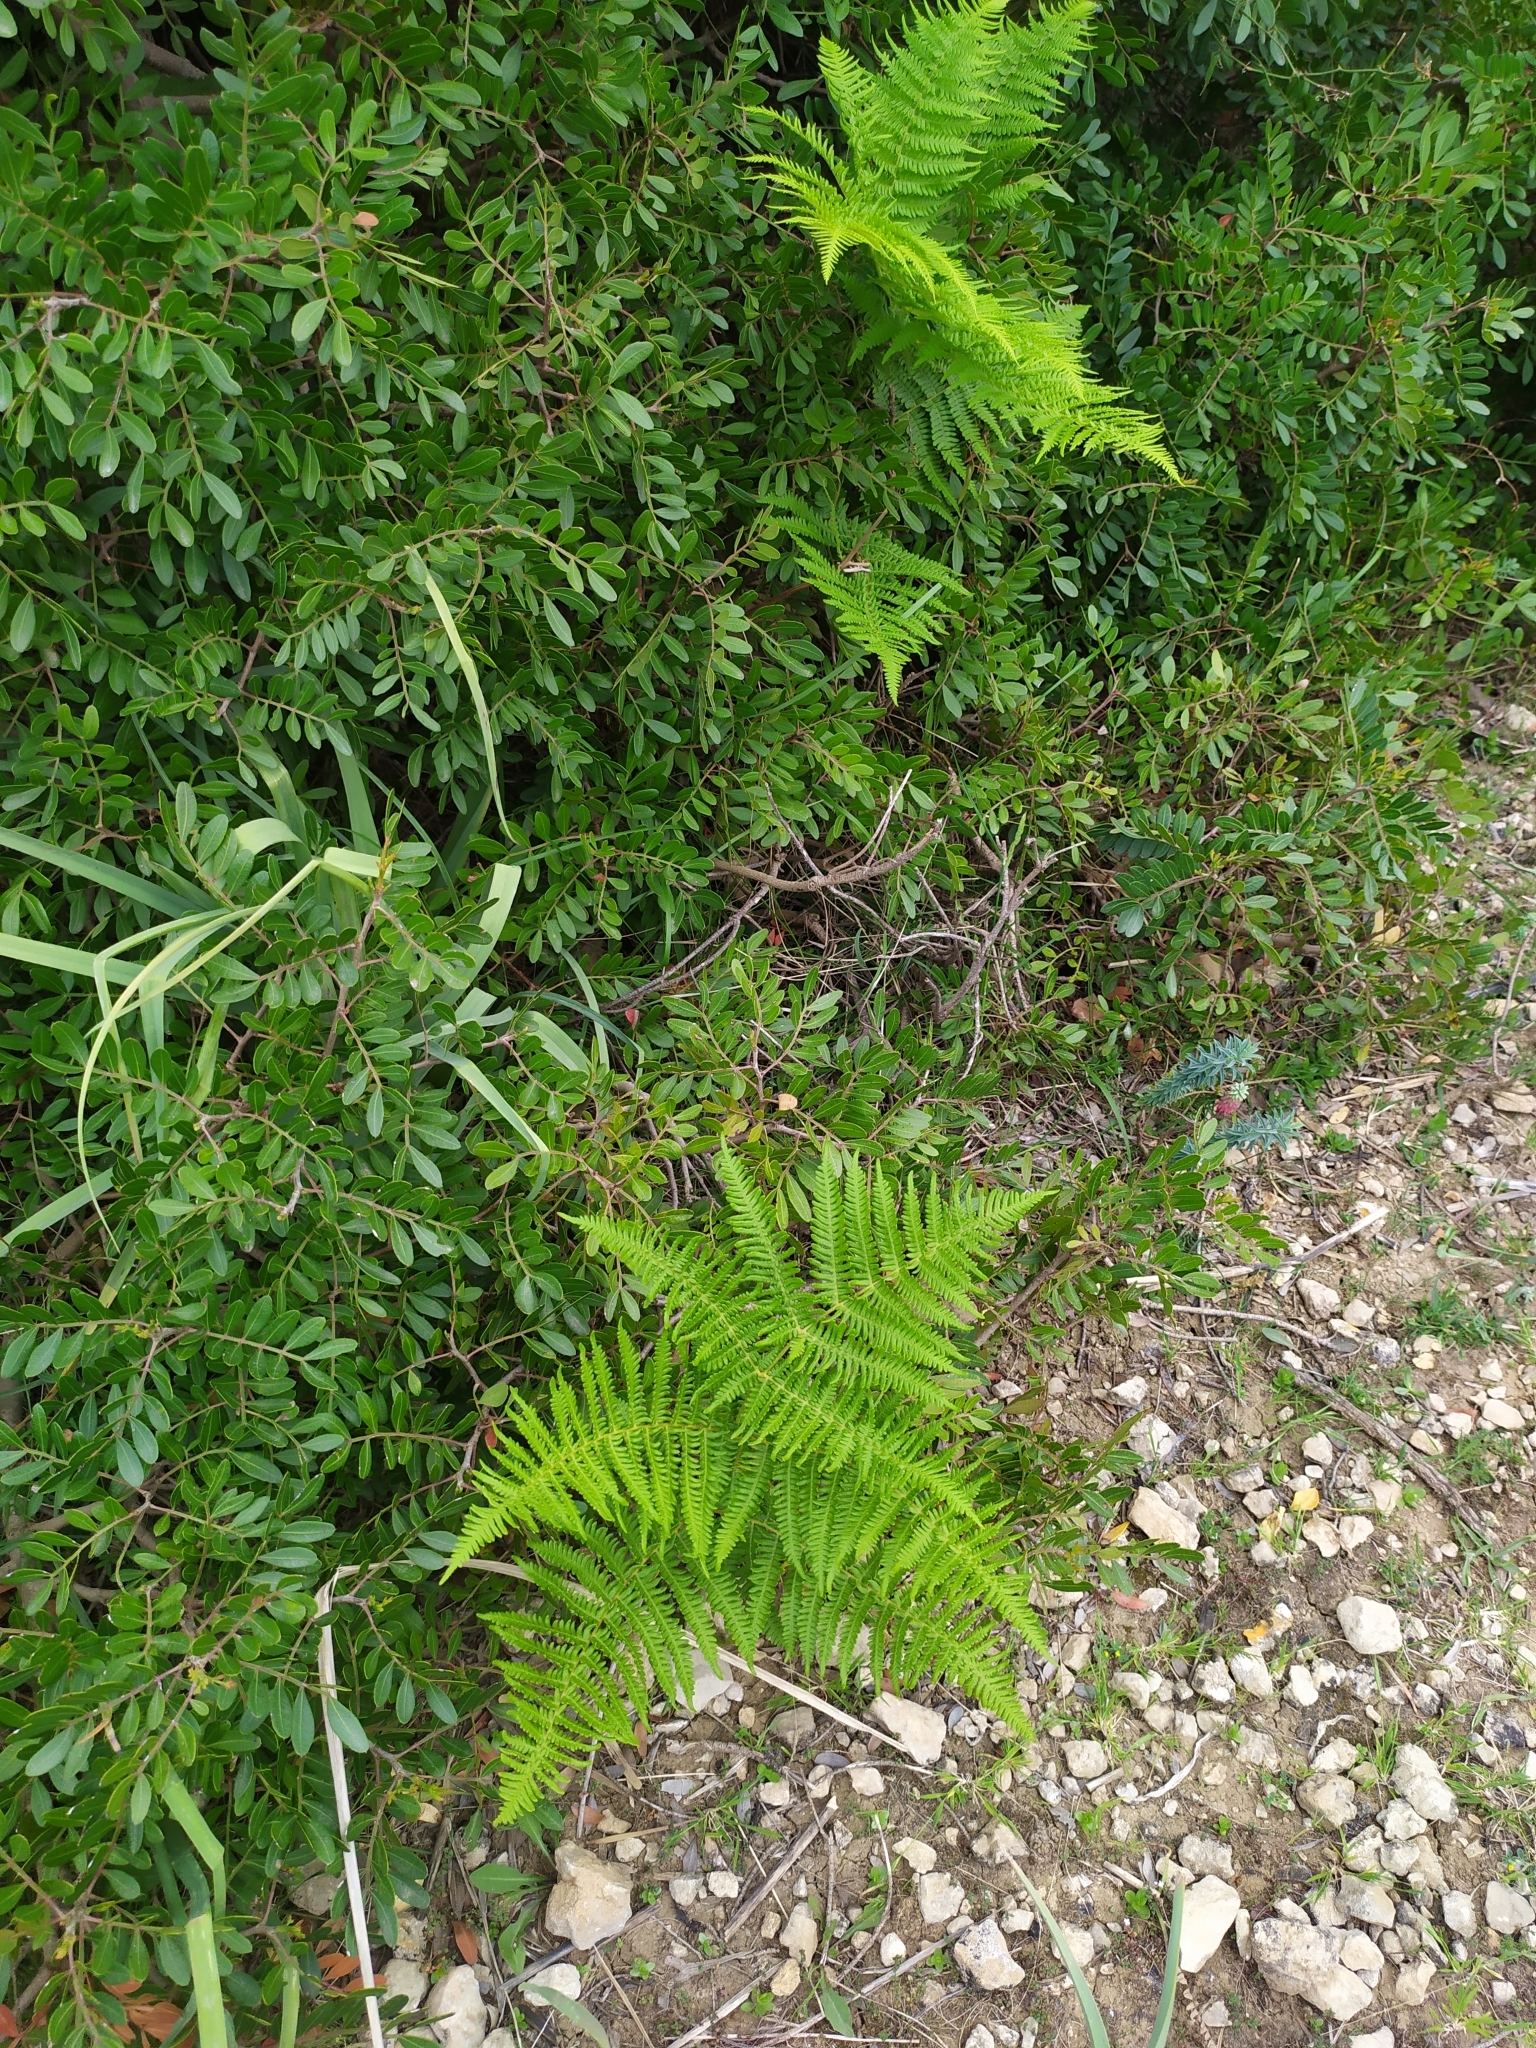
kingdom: Plantae
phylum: Tracheophyta
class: Polypodiopsida
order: Polypodiales
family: Dennstaedtiaceae
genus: Pteridium
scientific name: Pteridium aquilinum
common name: Bracken
